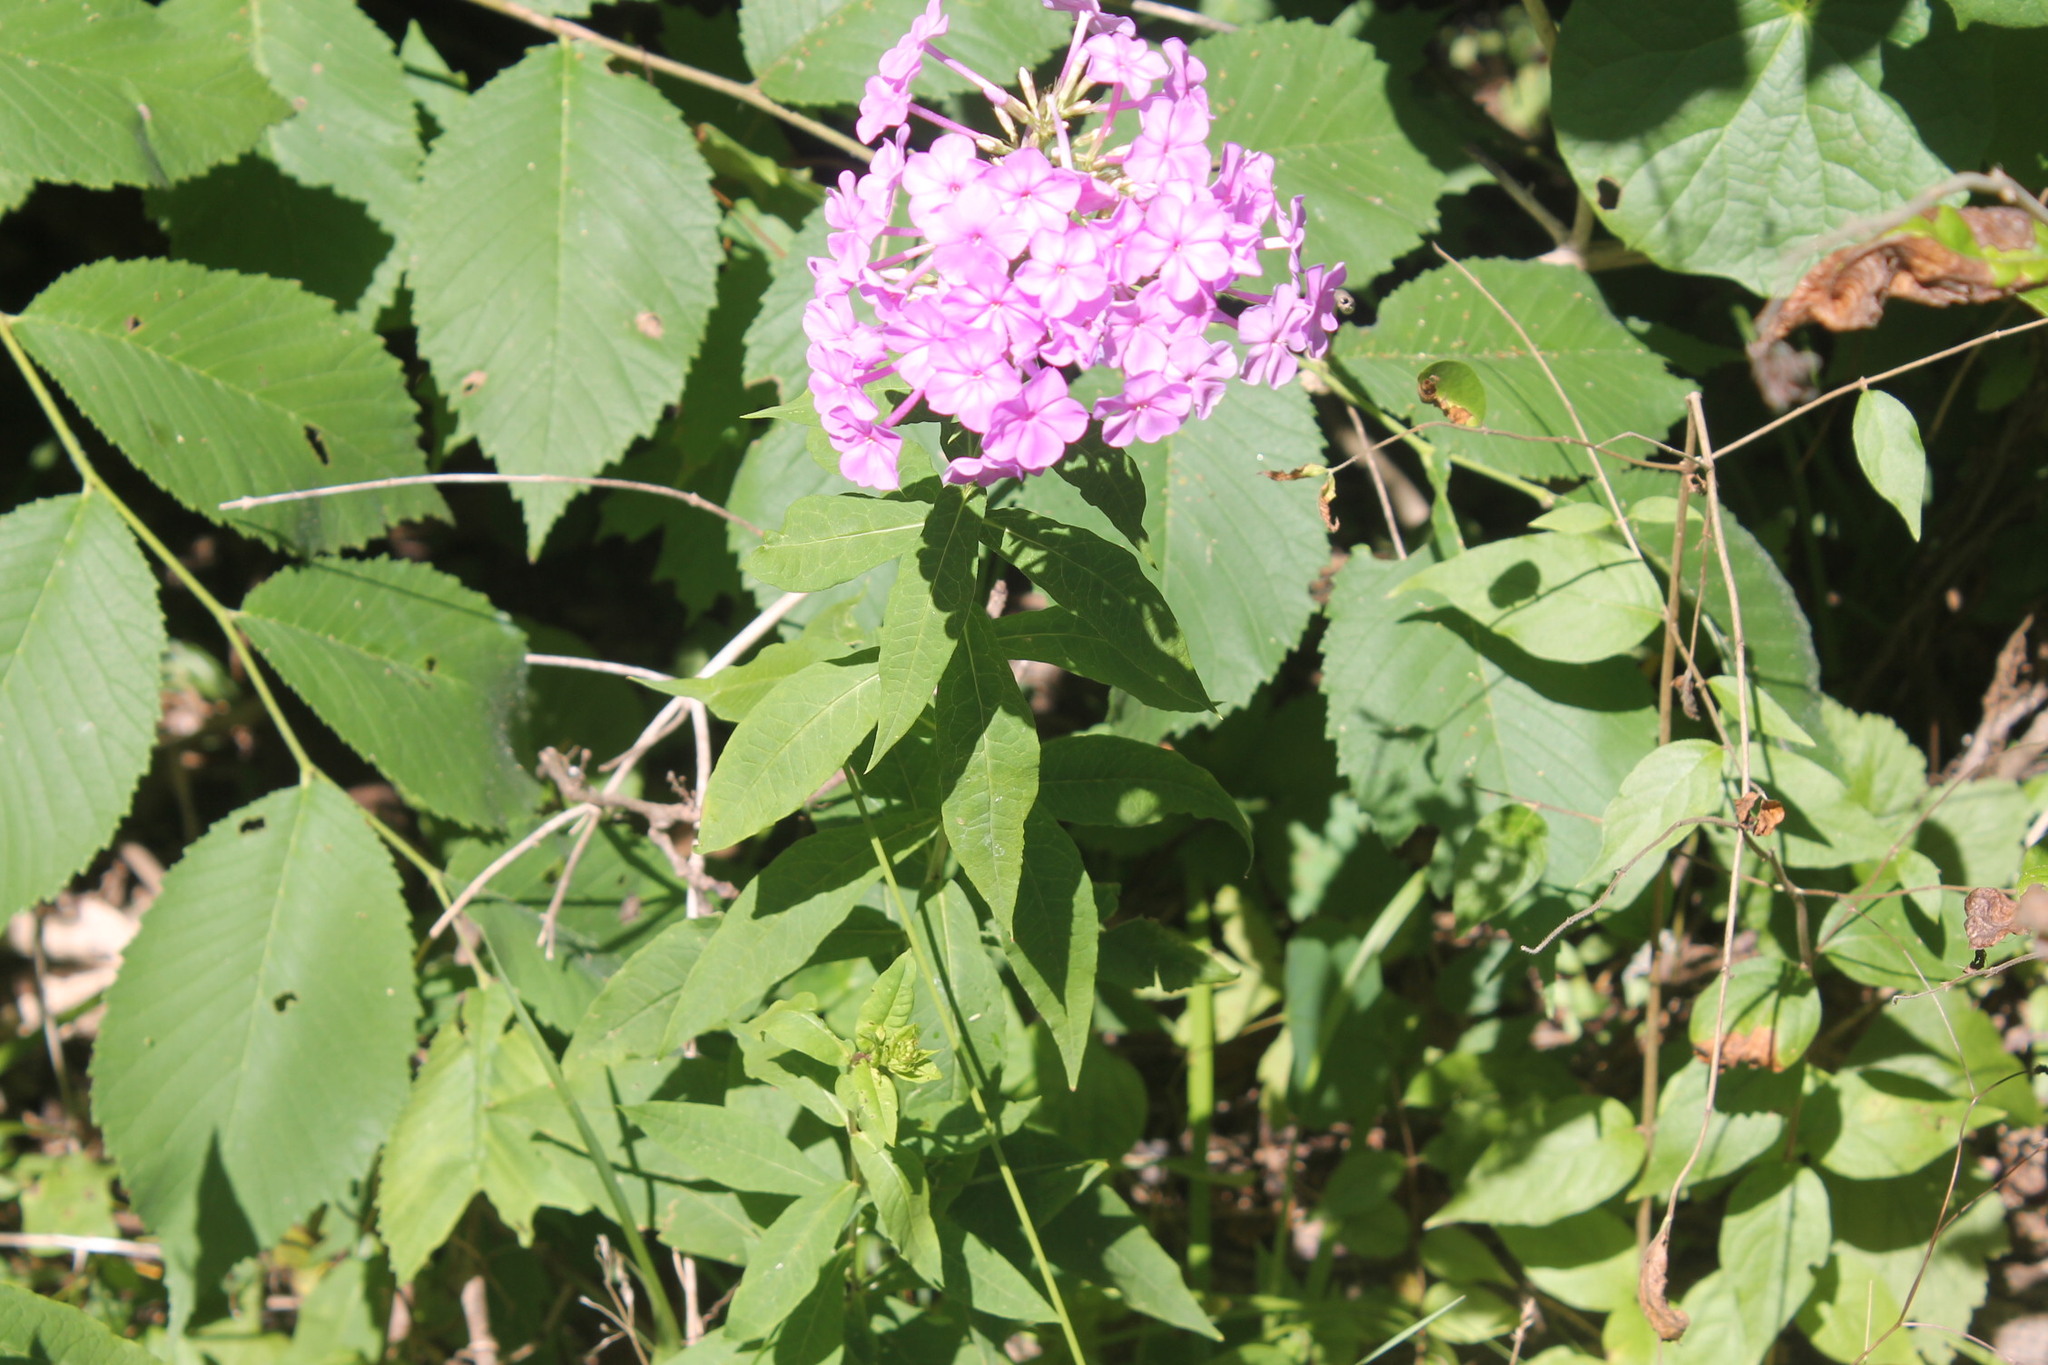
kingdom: Plantae
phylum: Tracheophyta
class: Magnoliopsida
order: Ericales
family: Polemoniaceae
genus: Phlox
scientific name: Phlox paniculata
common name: Fall phlox
